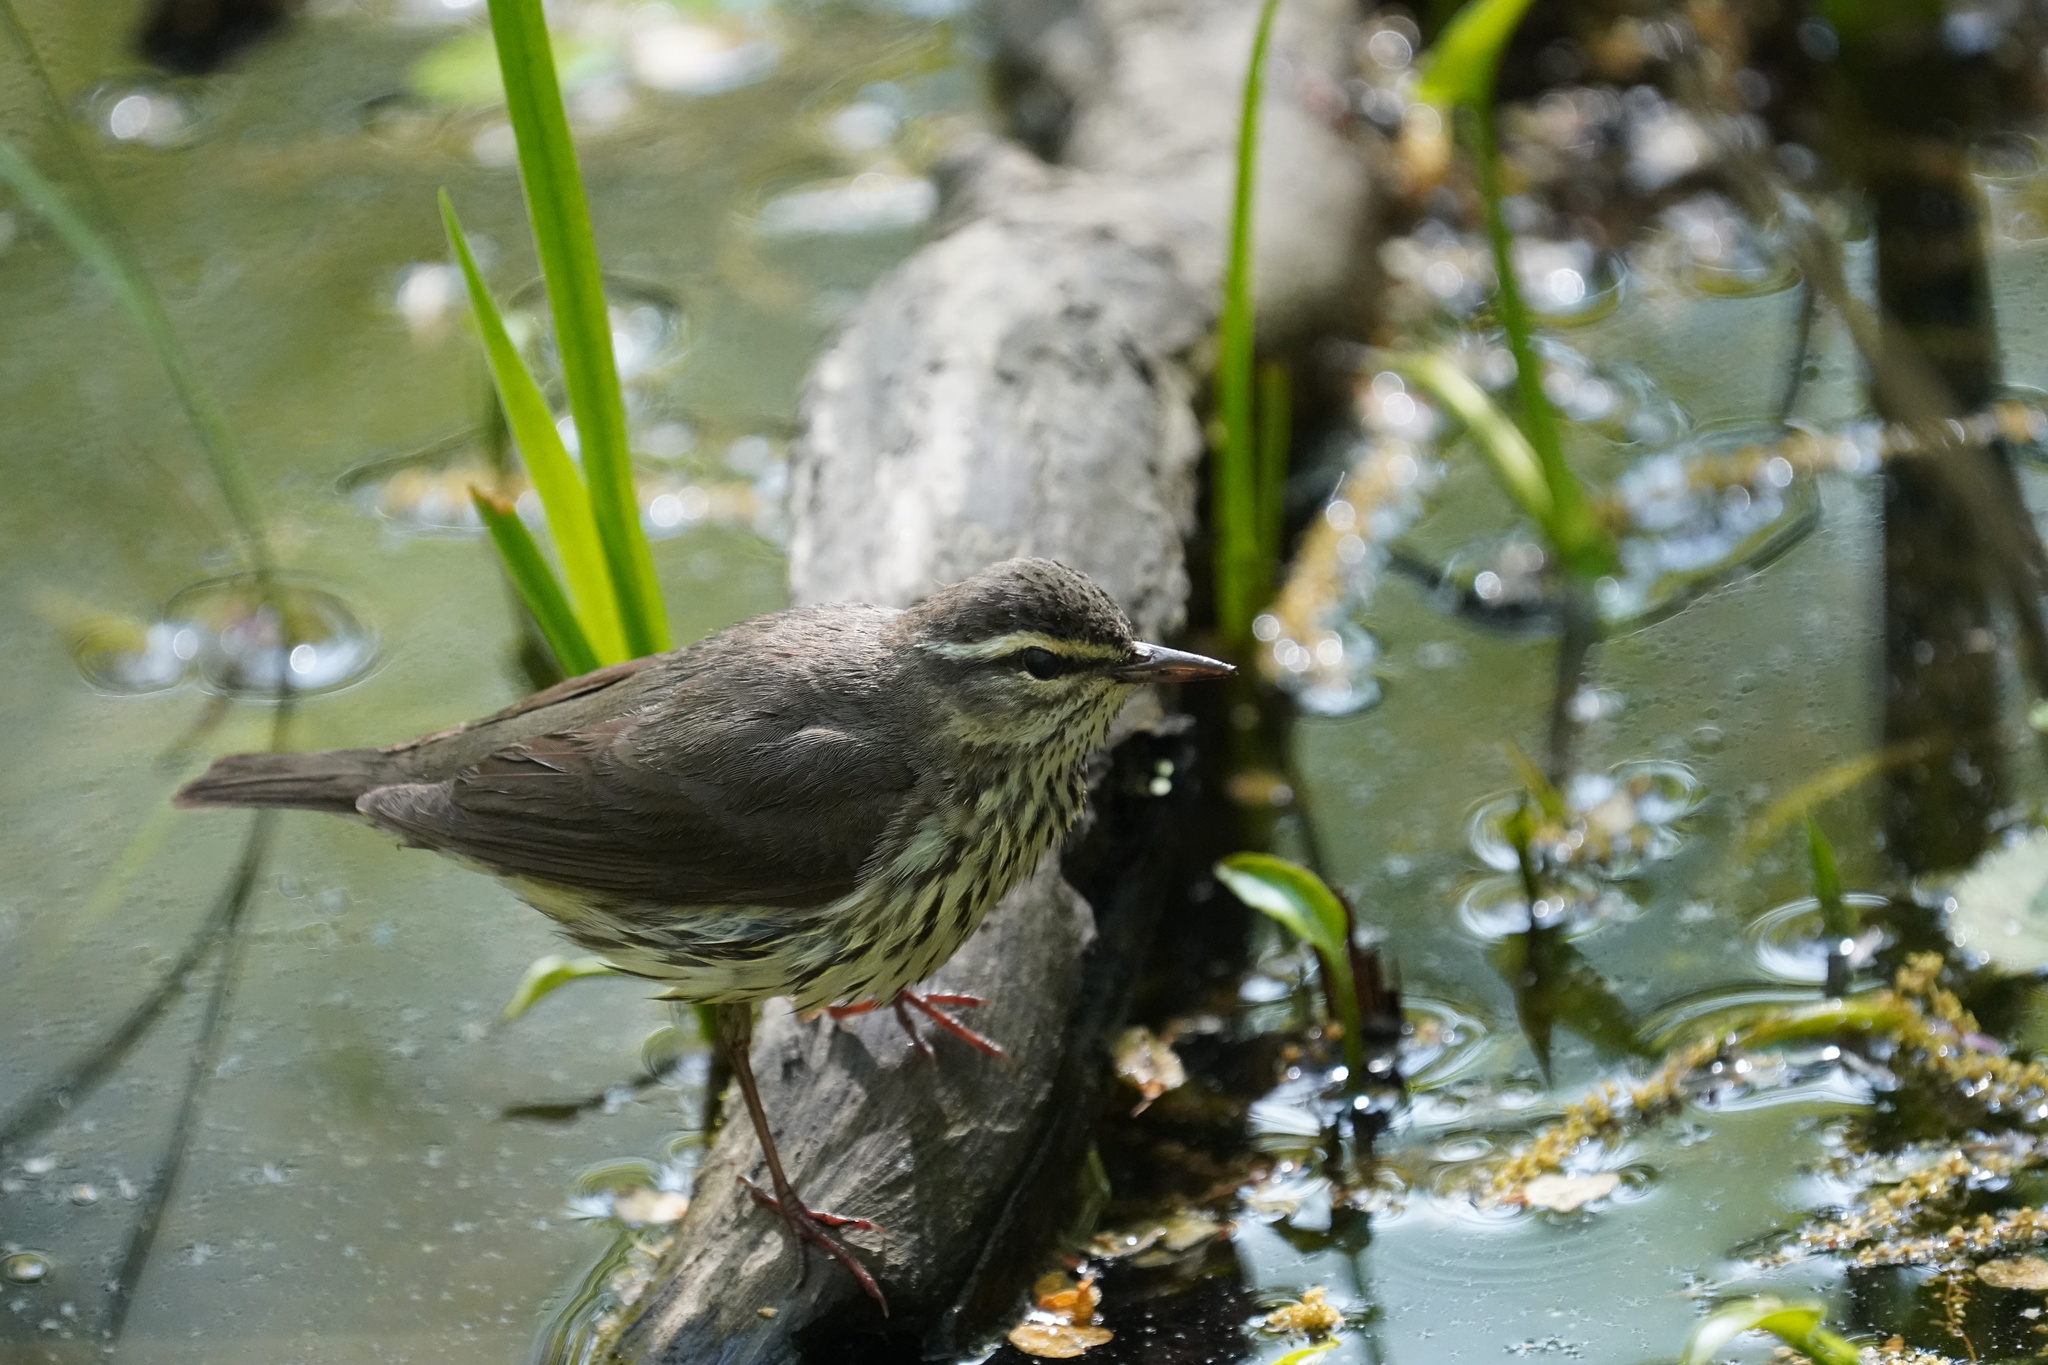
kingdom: Animalia
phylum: Chordata
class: Aves
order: Passeriformes
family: Parulidae
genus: Parkesia
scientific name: Parkesia noveboracensis
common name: Northern waterthrush
